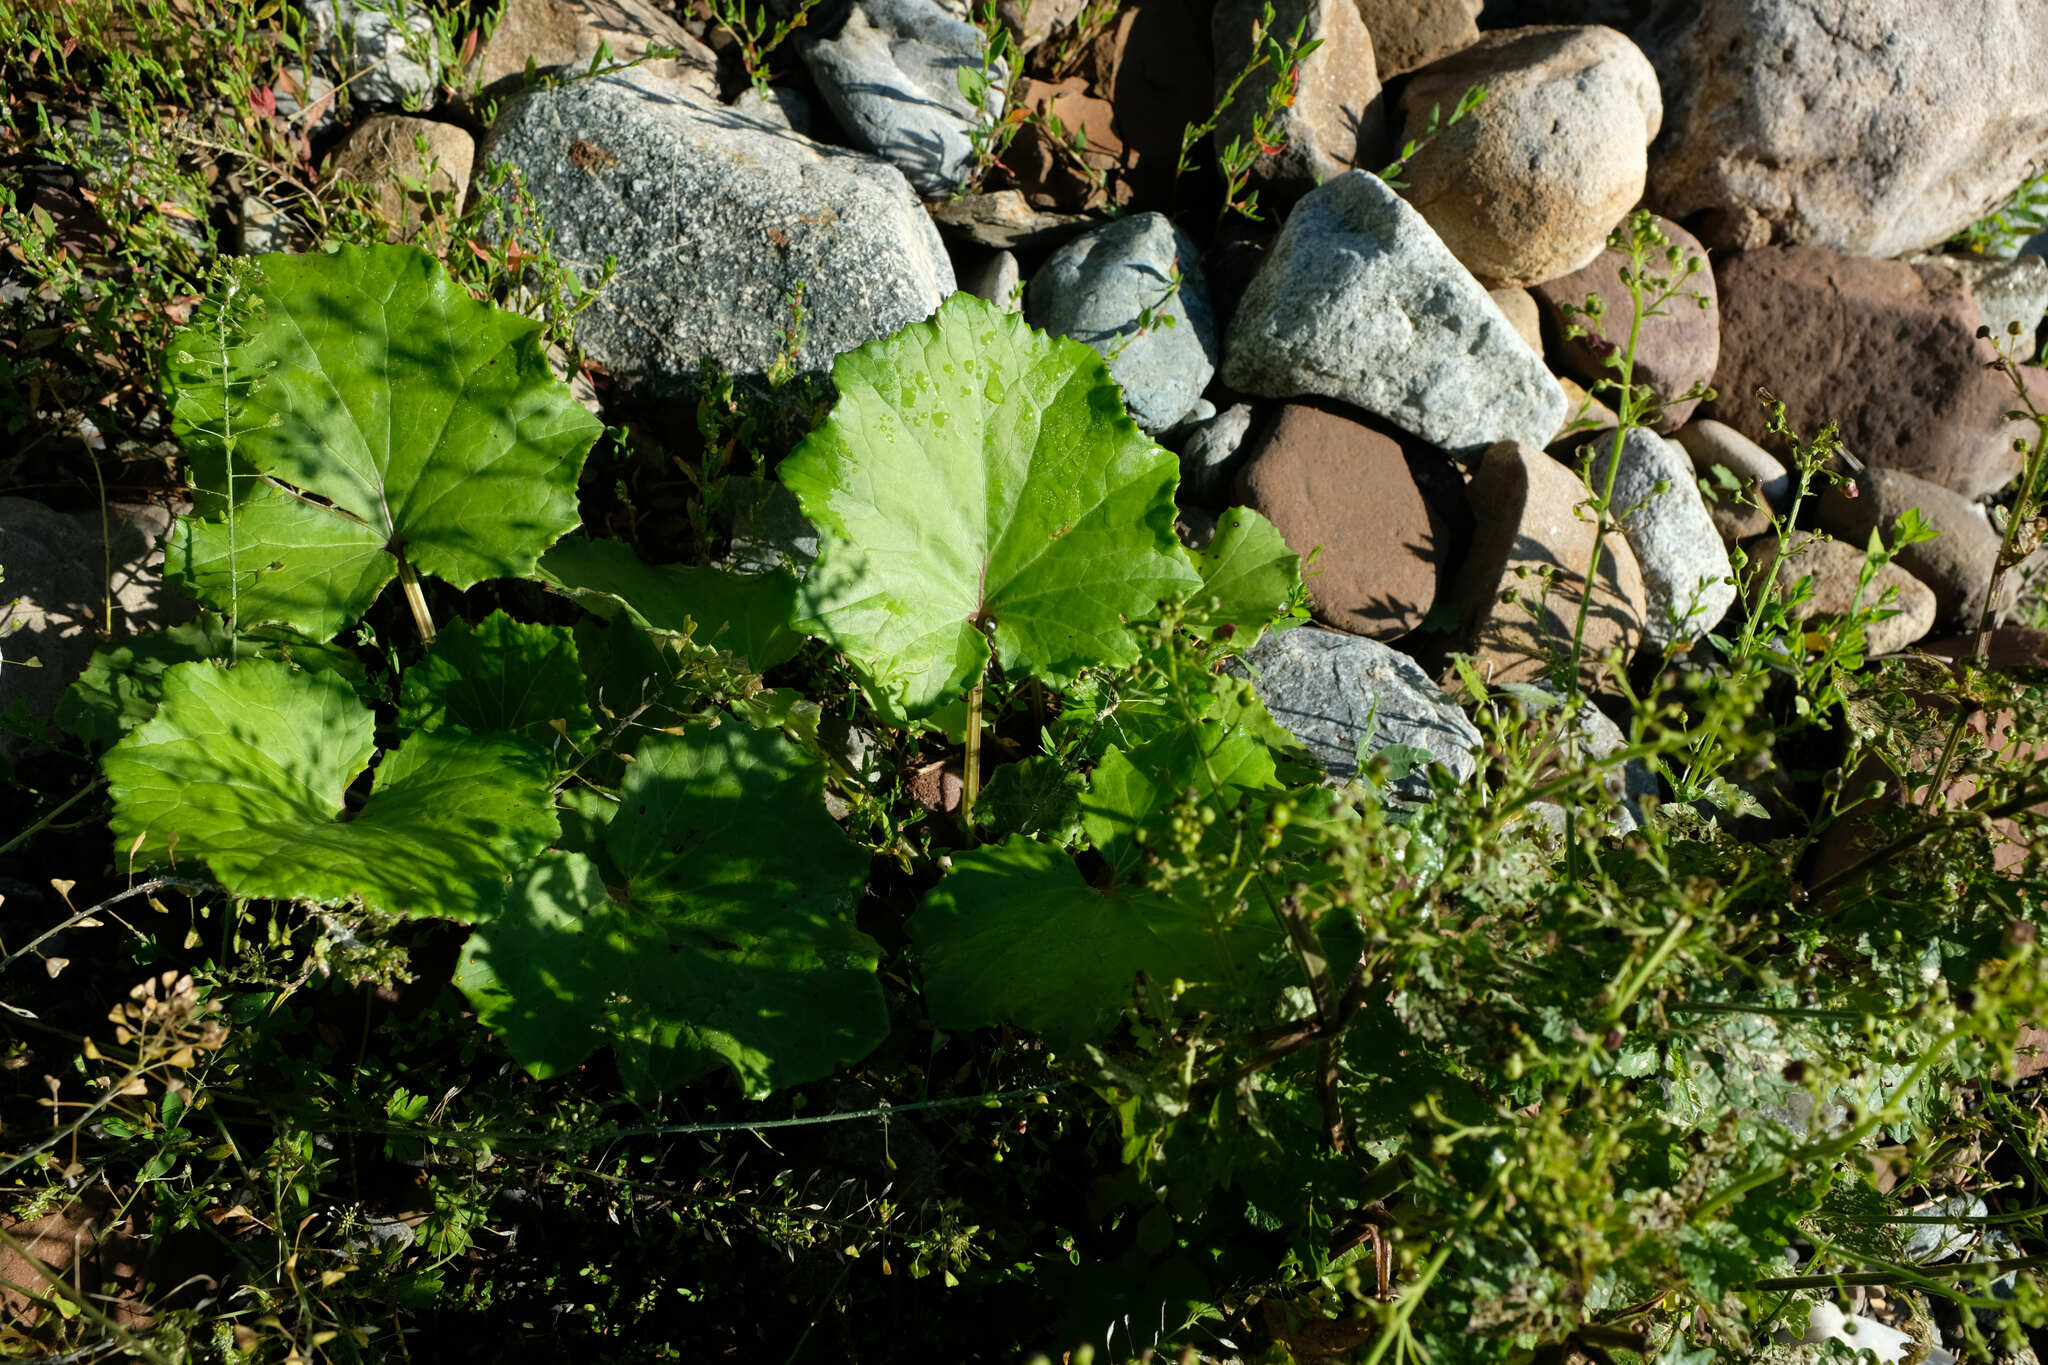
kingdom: Plantae
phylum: Tracheophyta
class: Magnoliopsida
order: Asterales
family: Asteraceae
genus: Tussilago
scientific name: Tussilago farfara
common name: Coltsfoot
